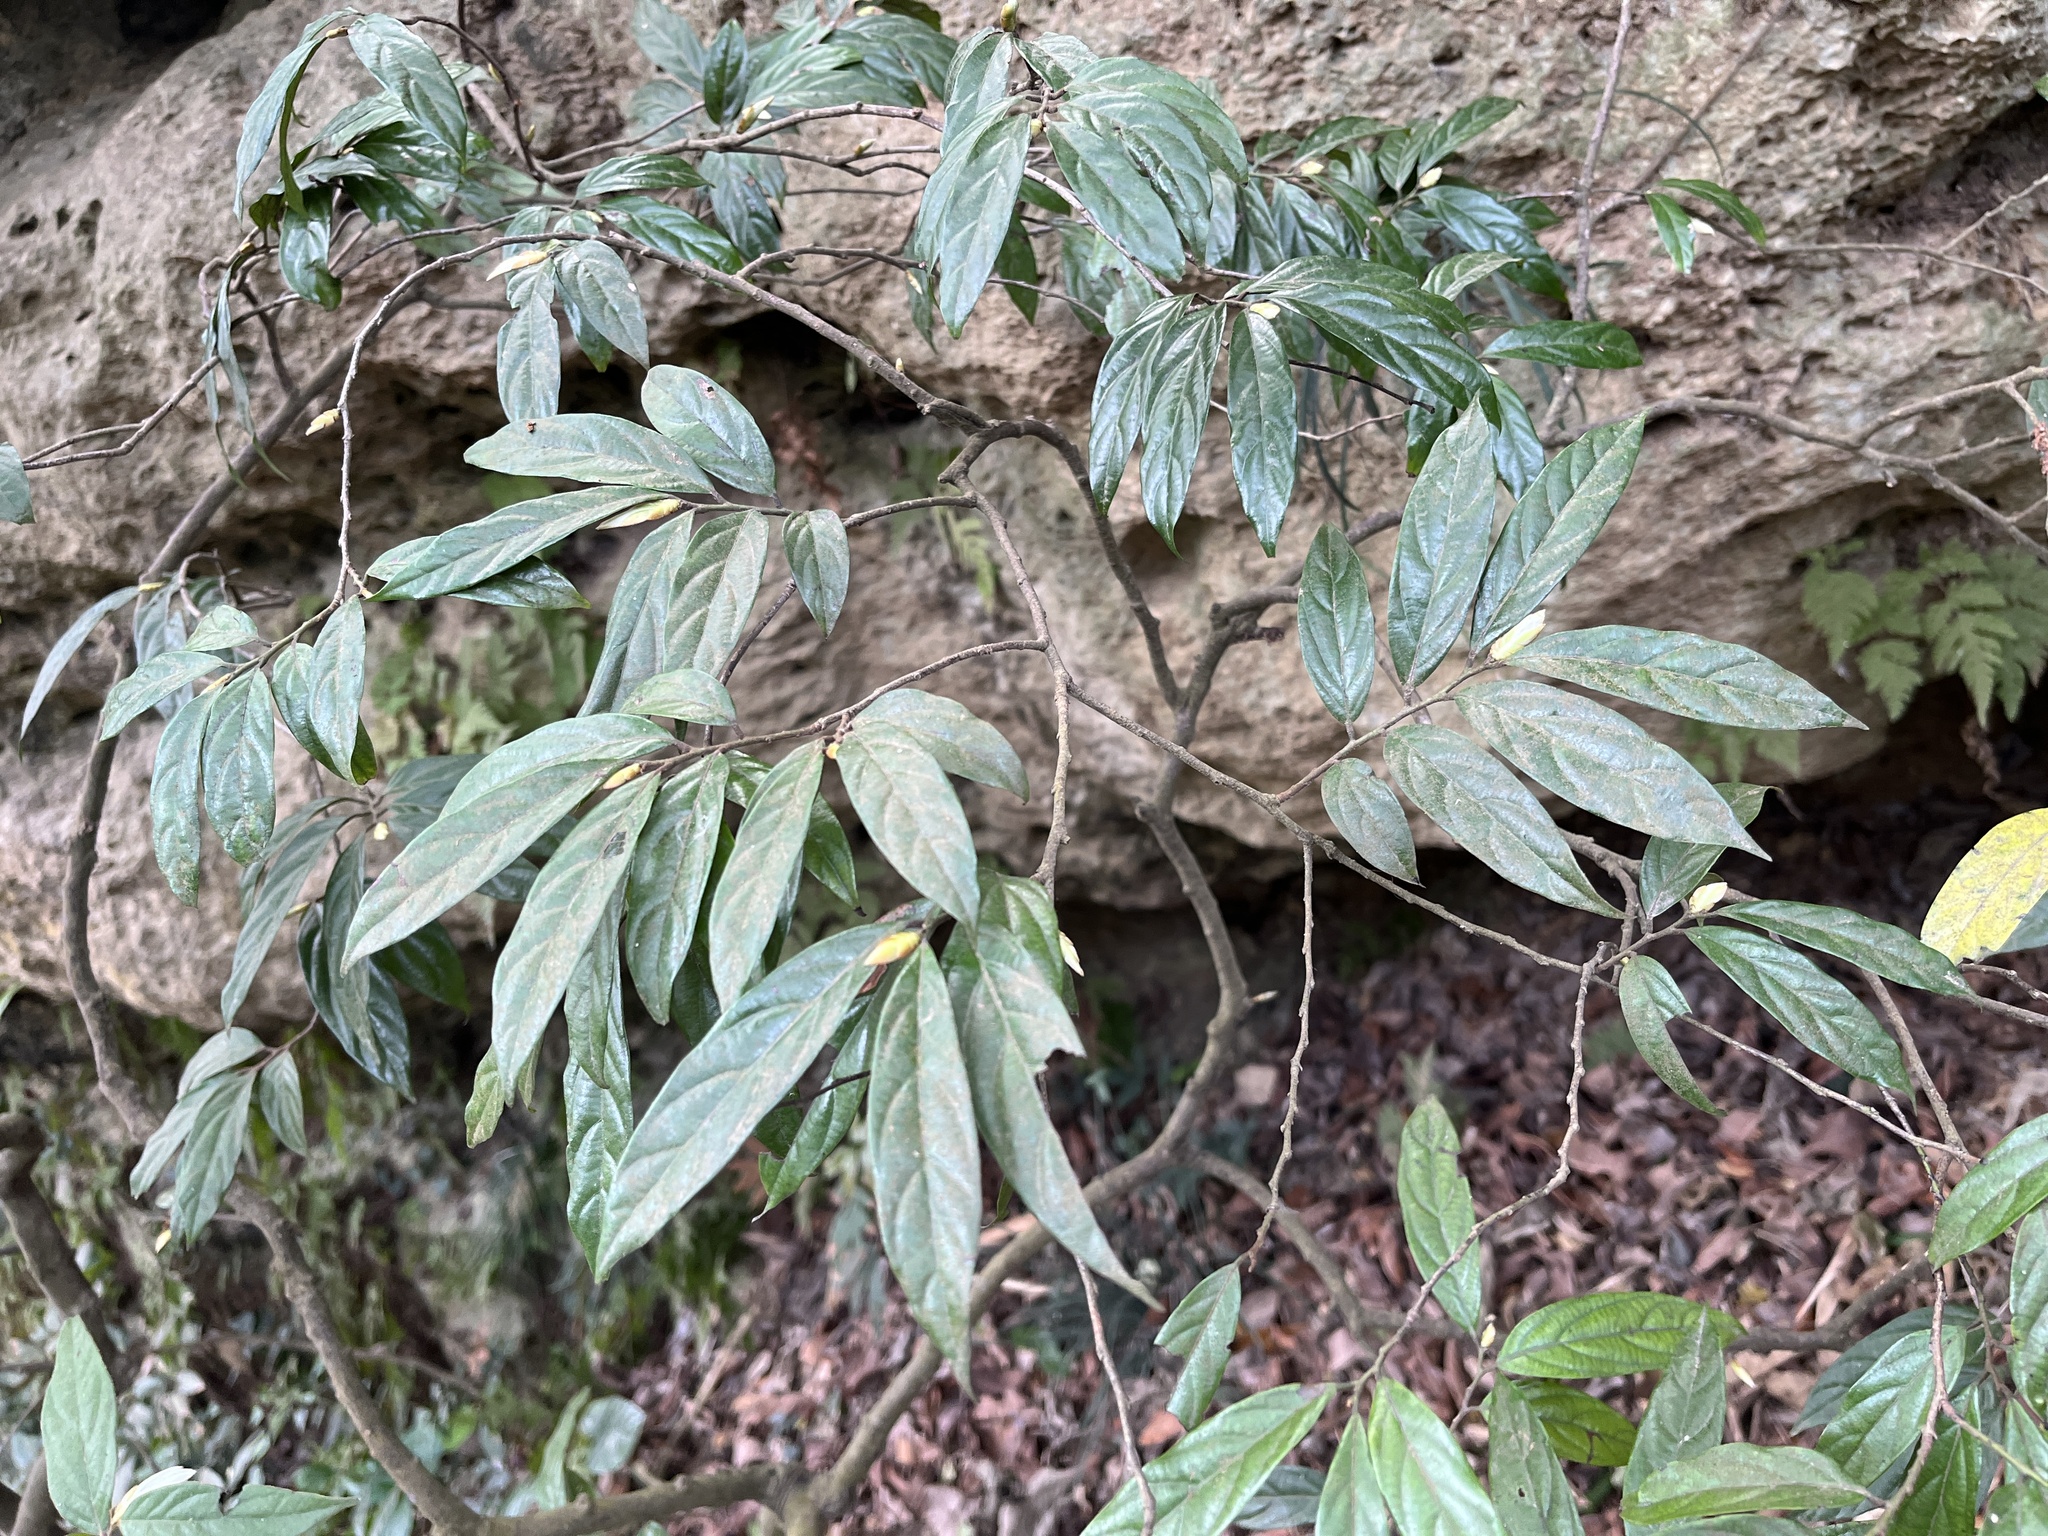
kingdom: Plantae
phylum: Tracheophyta
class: Magnoliopsida
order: Ericales
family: Ebenaceae
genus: Diospyros
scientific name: Diospyros eriantha
